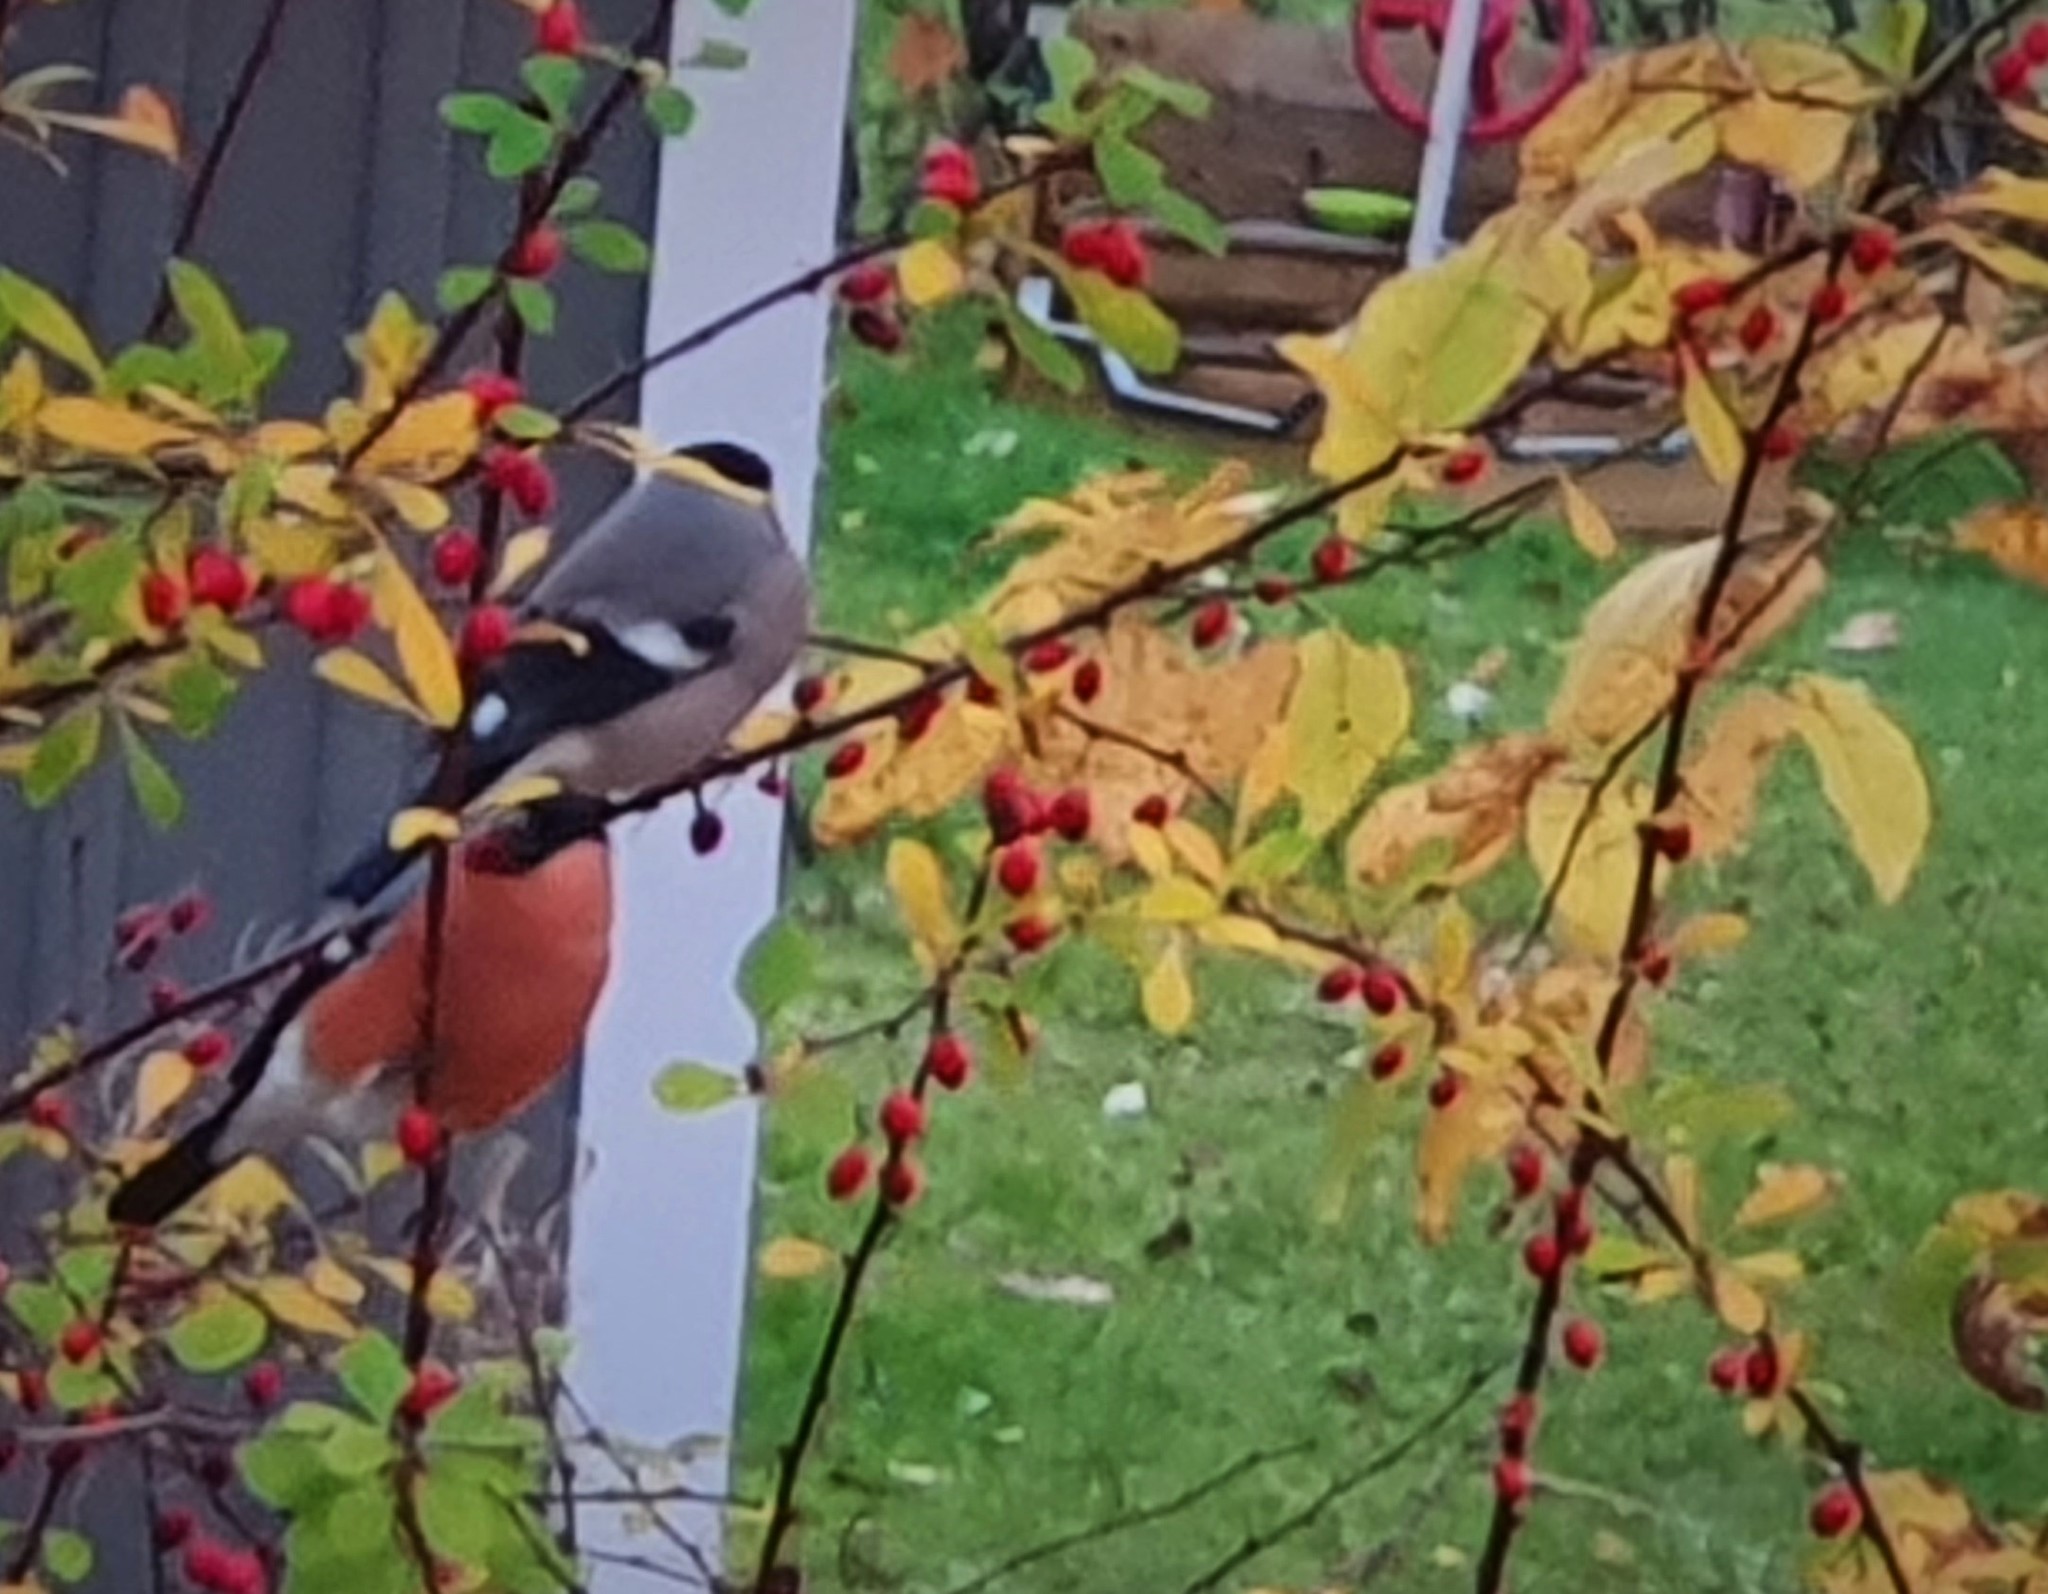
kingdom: Animalia
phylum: Chordata
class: Aves
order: Passeriformes
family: Fringillidae
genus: Pyrrhula
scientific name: Pyrrhula pyrrhula
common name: Eurasian bullfinch
